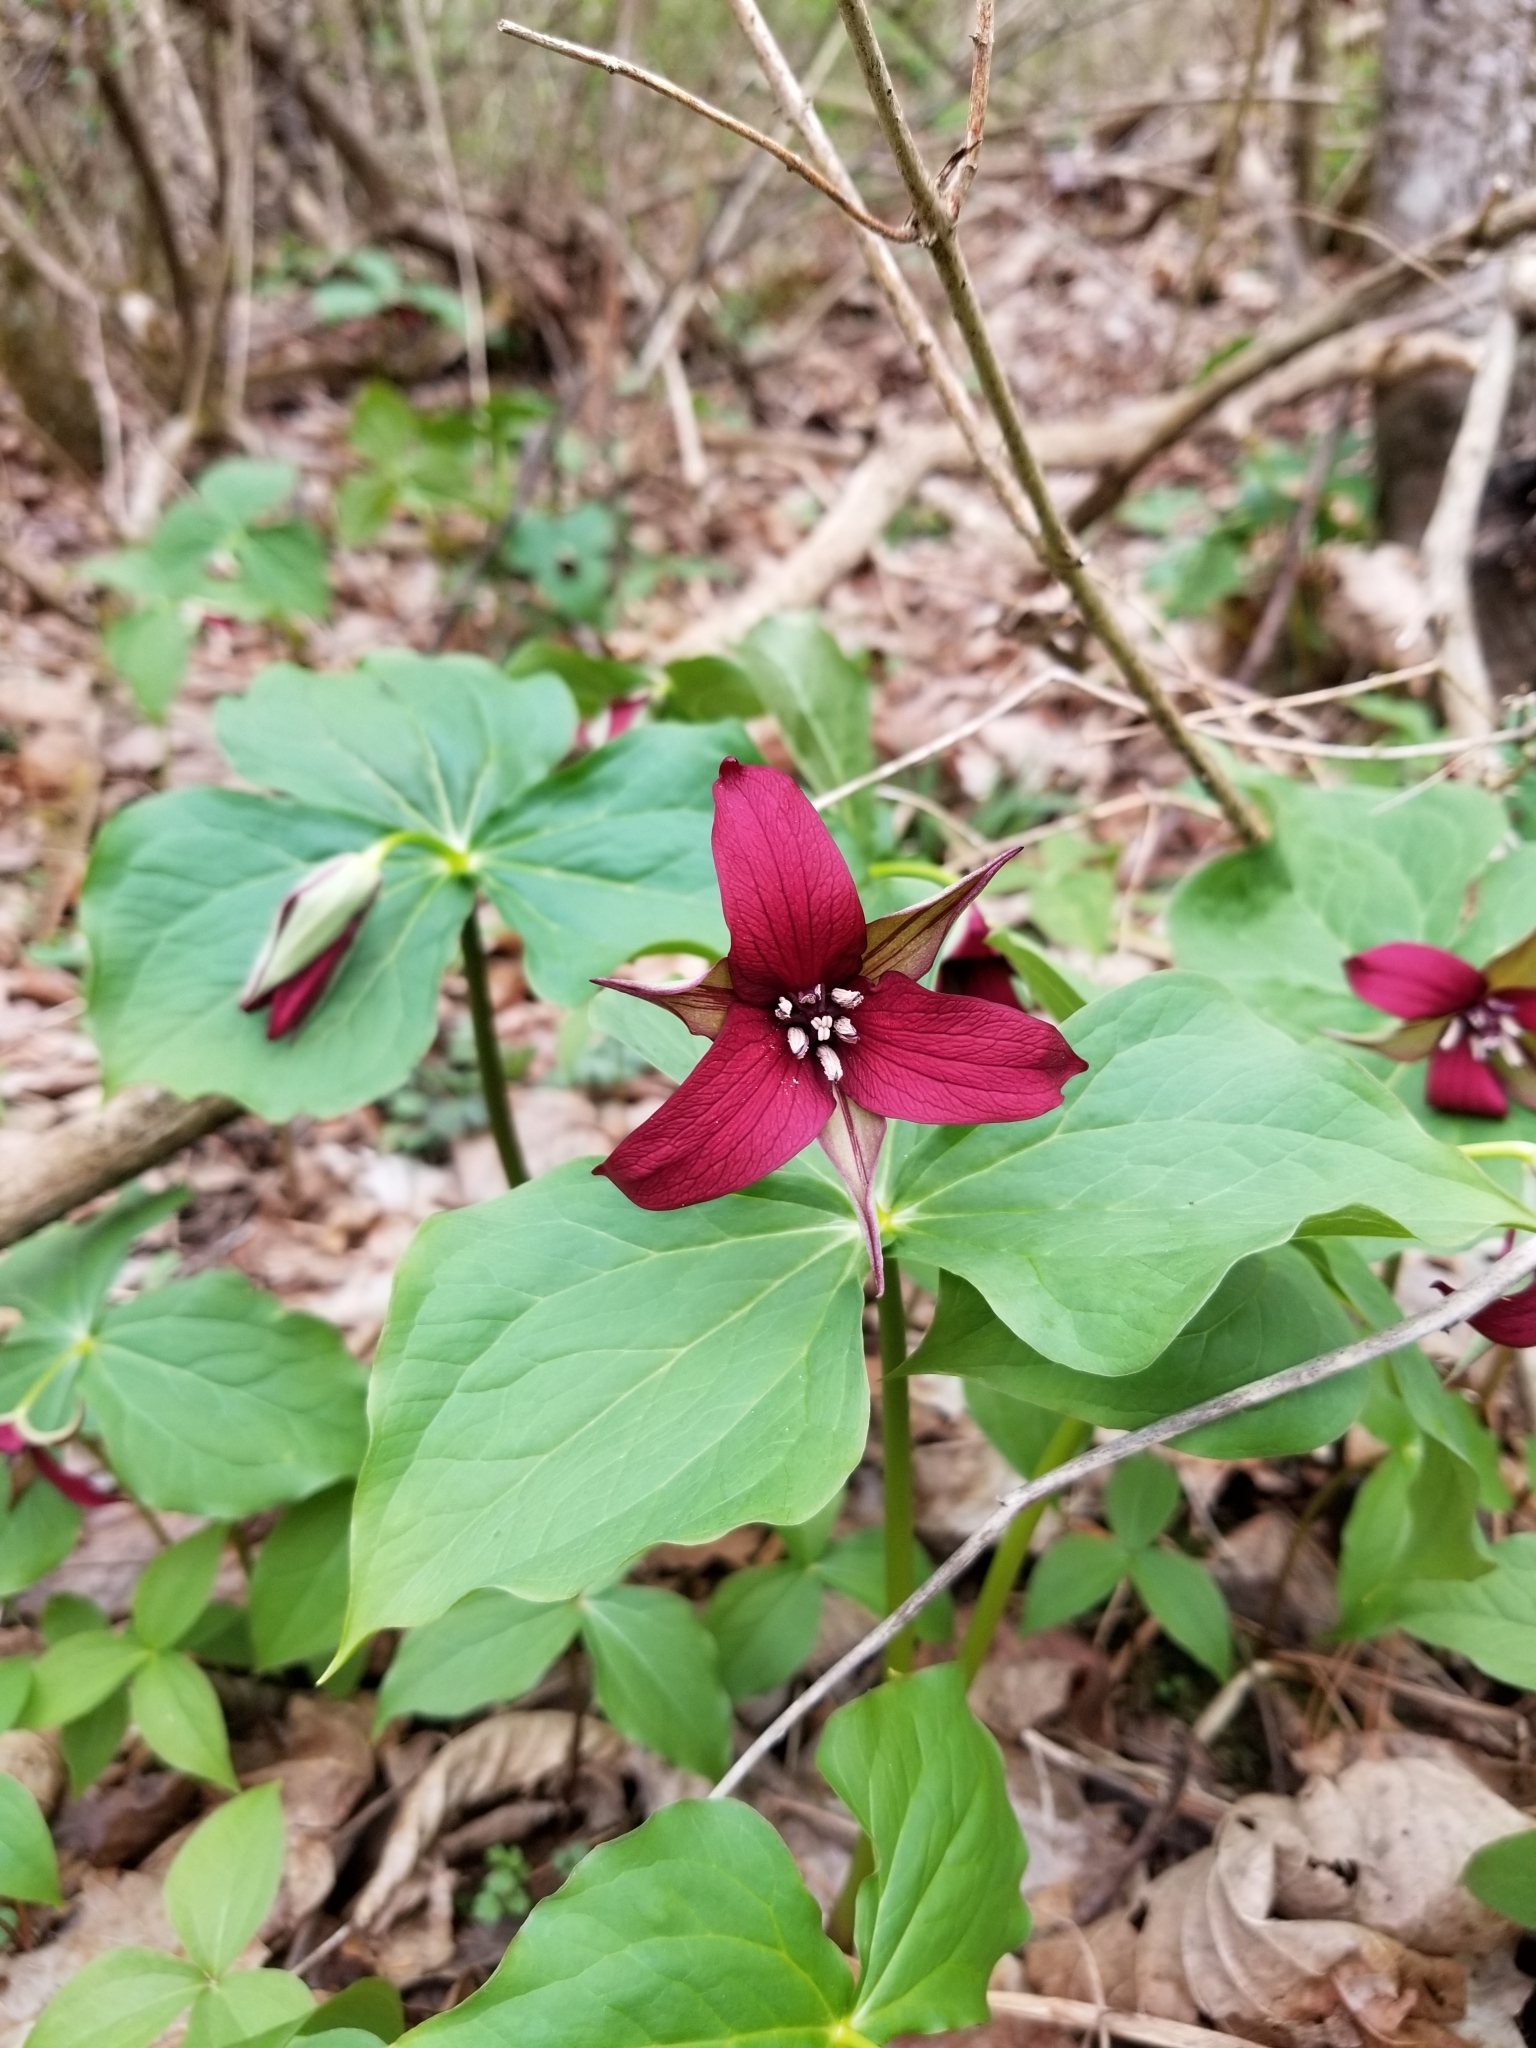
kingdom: Plantae
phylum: Tracheophyta
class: Liliopsida
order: Liliales
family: Melanthiaceae
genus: Trillium
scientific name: Trillium erectum
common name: Purple trillium
